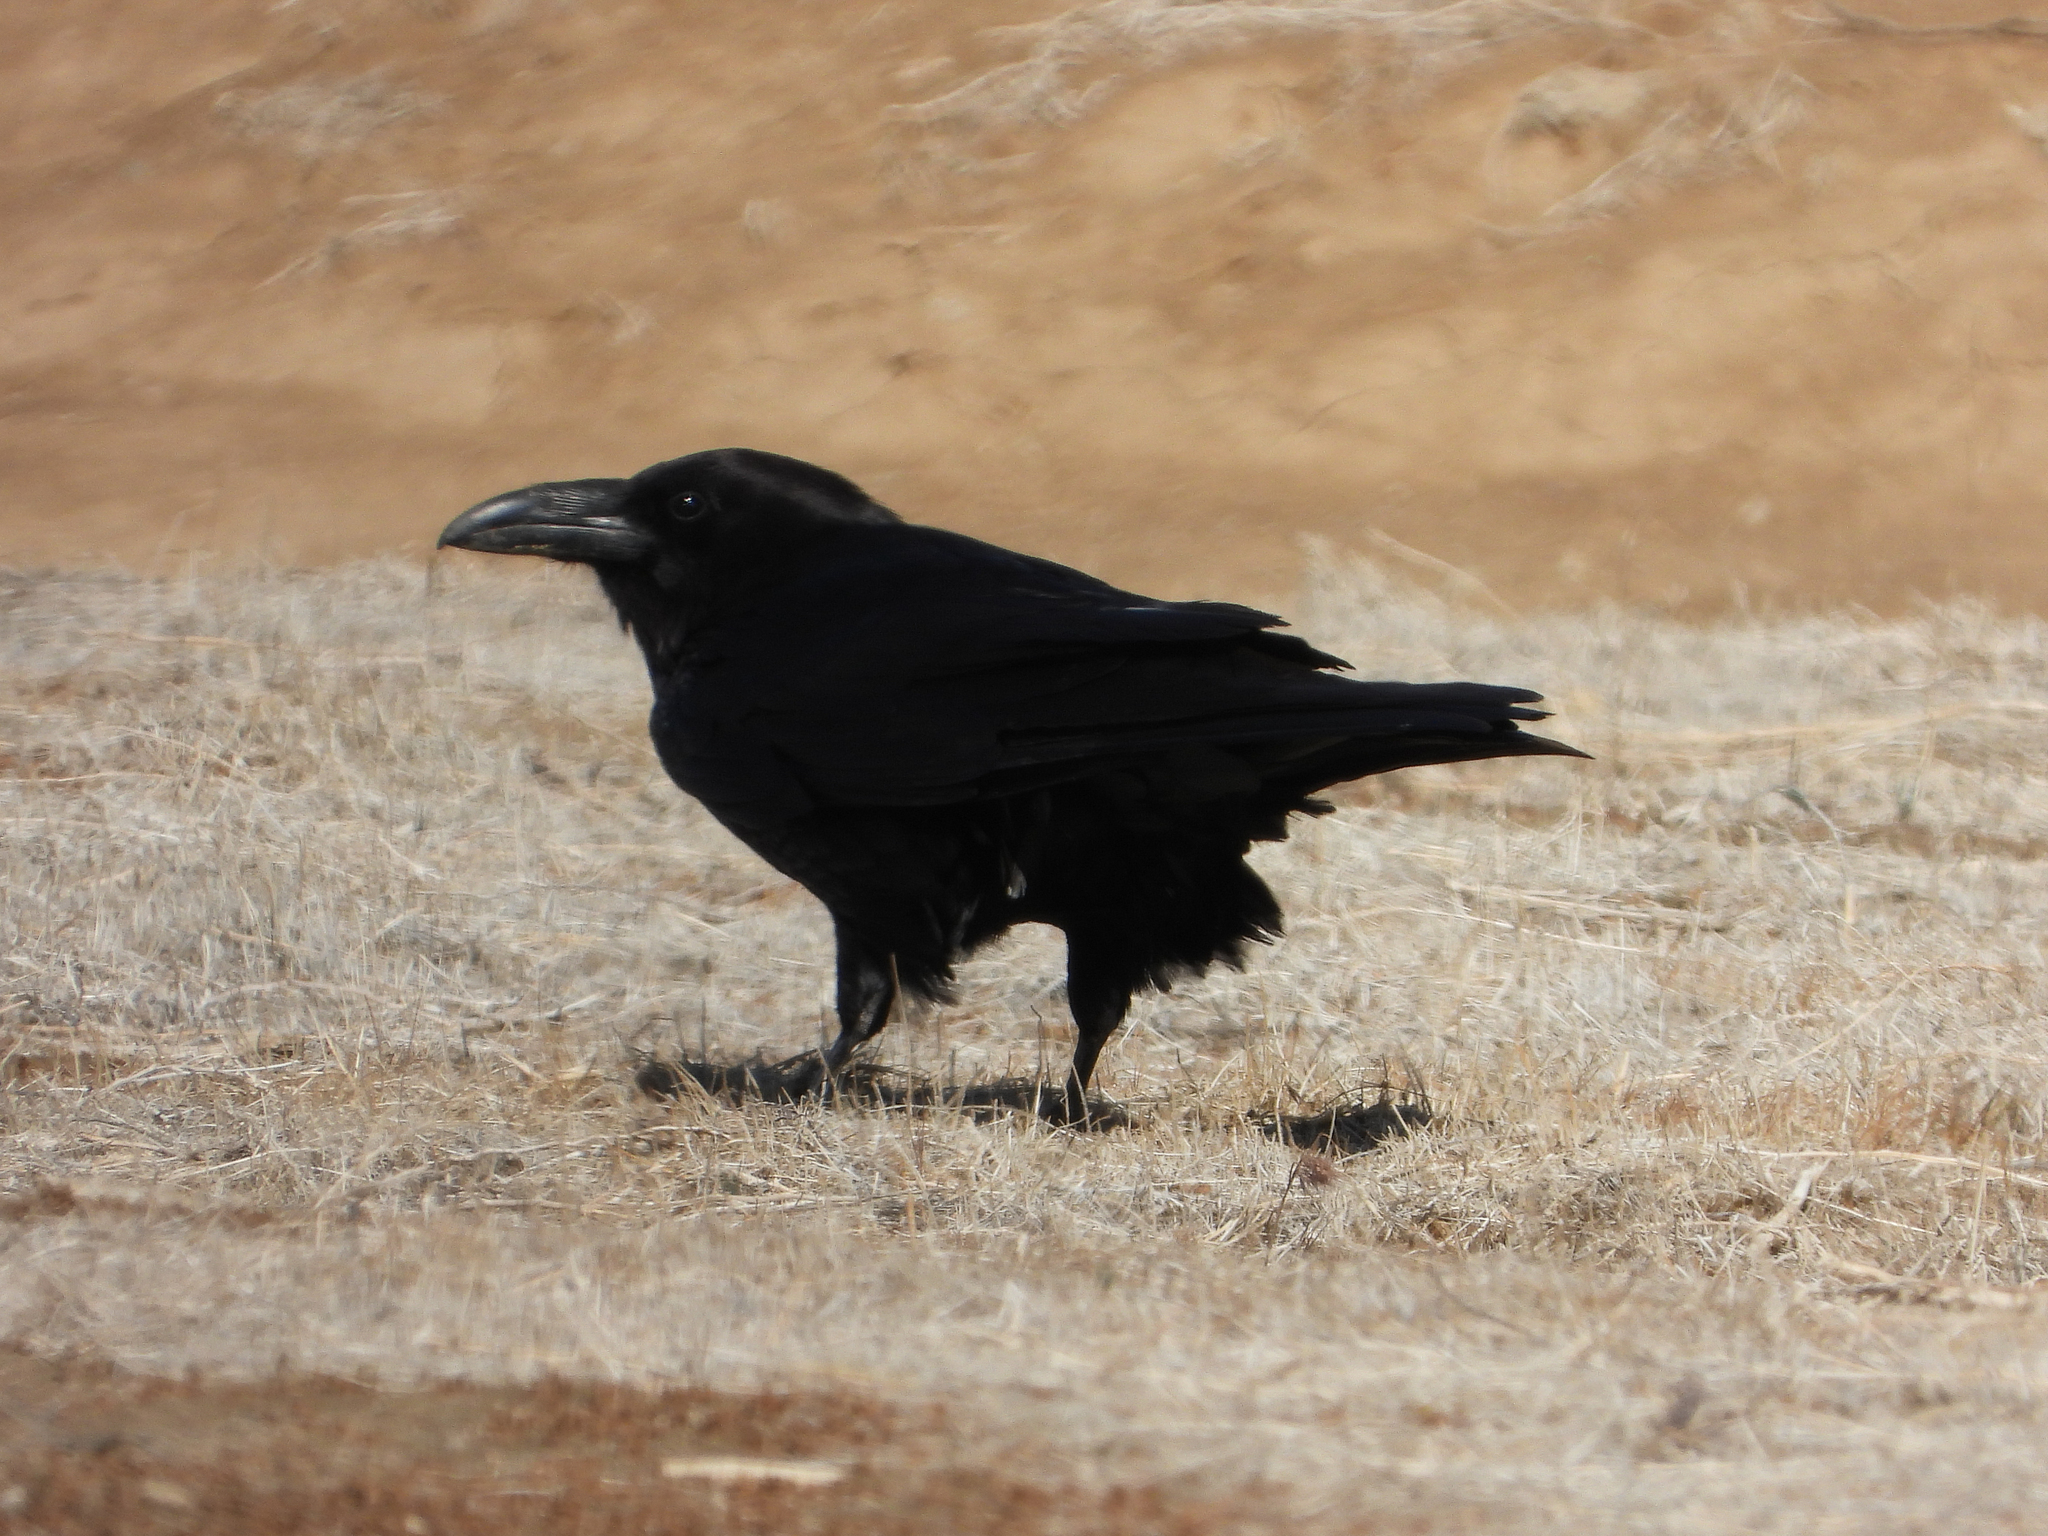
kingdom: Animalia
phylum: Chordata
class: Aves
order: Passeriformes
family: Corvidae
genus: Corvus
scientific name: Corvus corax
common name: Common raven
